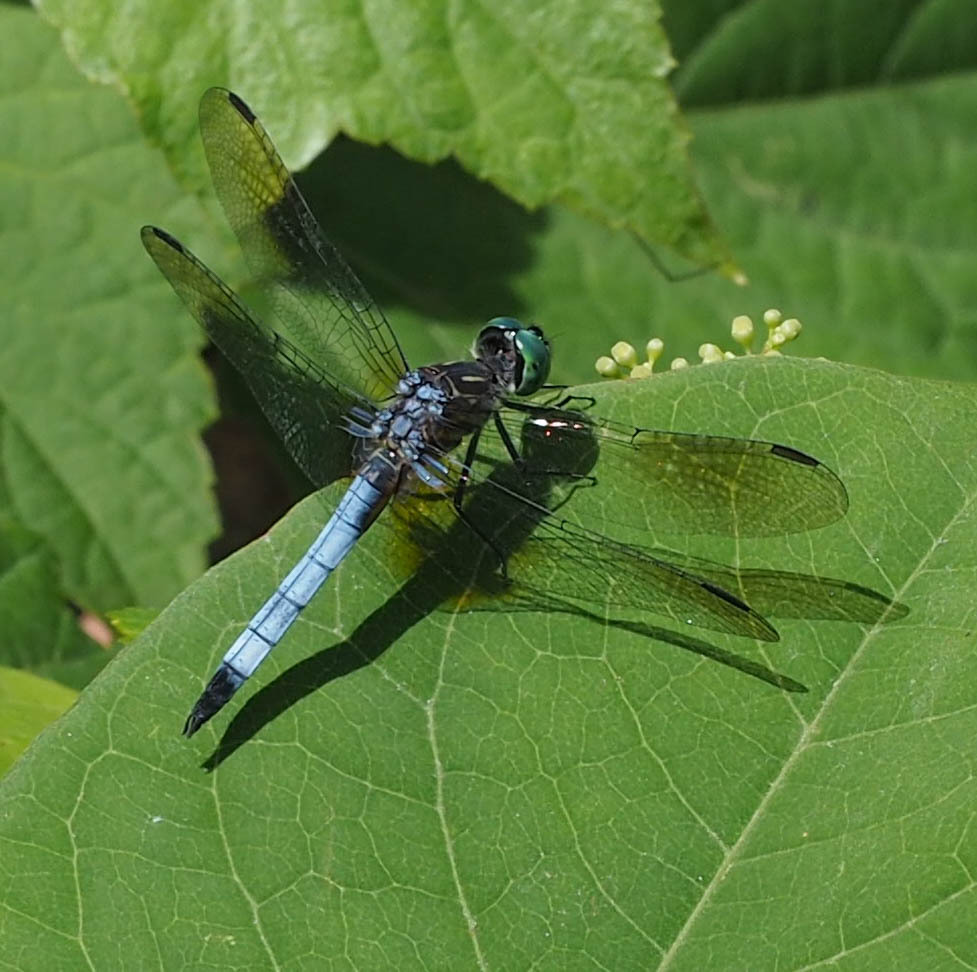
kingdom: Animalia
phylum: Arthropoda
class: Insecta
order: Odonata
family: Libellulidae
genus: Pachydiplax
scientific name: Pachydiplax longipennis
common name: Blue dasher
